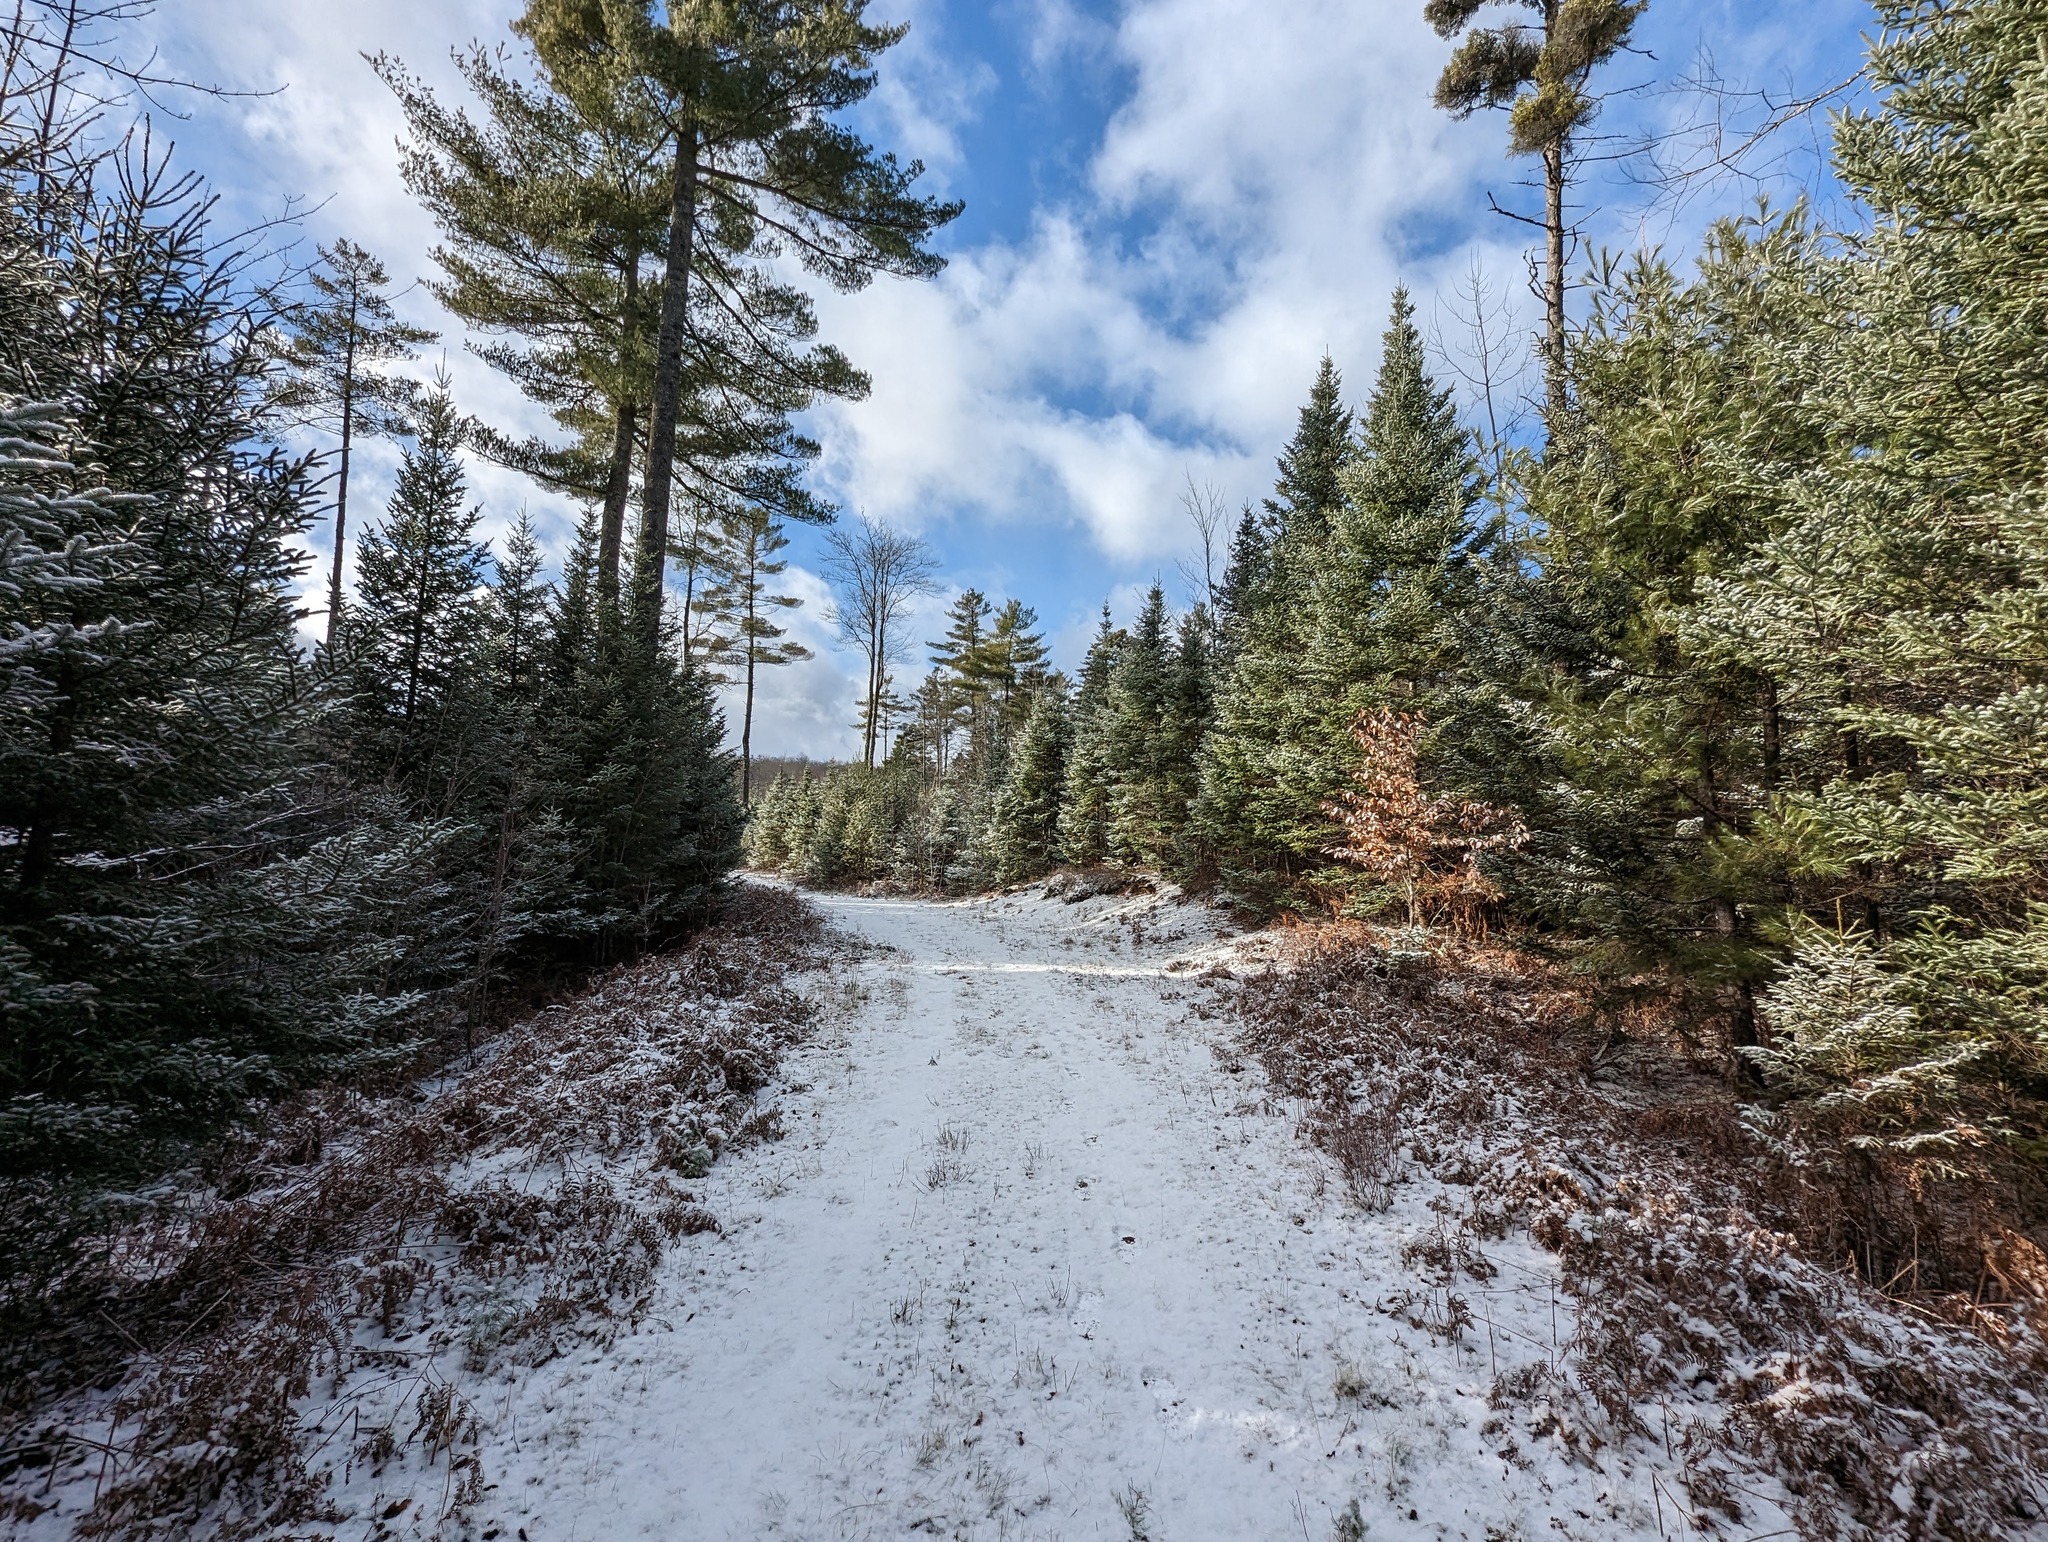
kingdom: Plantae
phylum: Tracheophyta
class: Pinopsida
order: Pinales
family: Pinaceae
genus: Pinus
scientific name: Pinus strobus
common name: Weymouth pine
